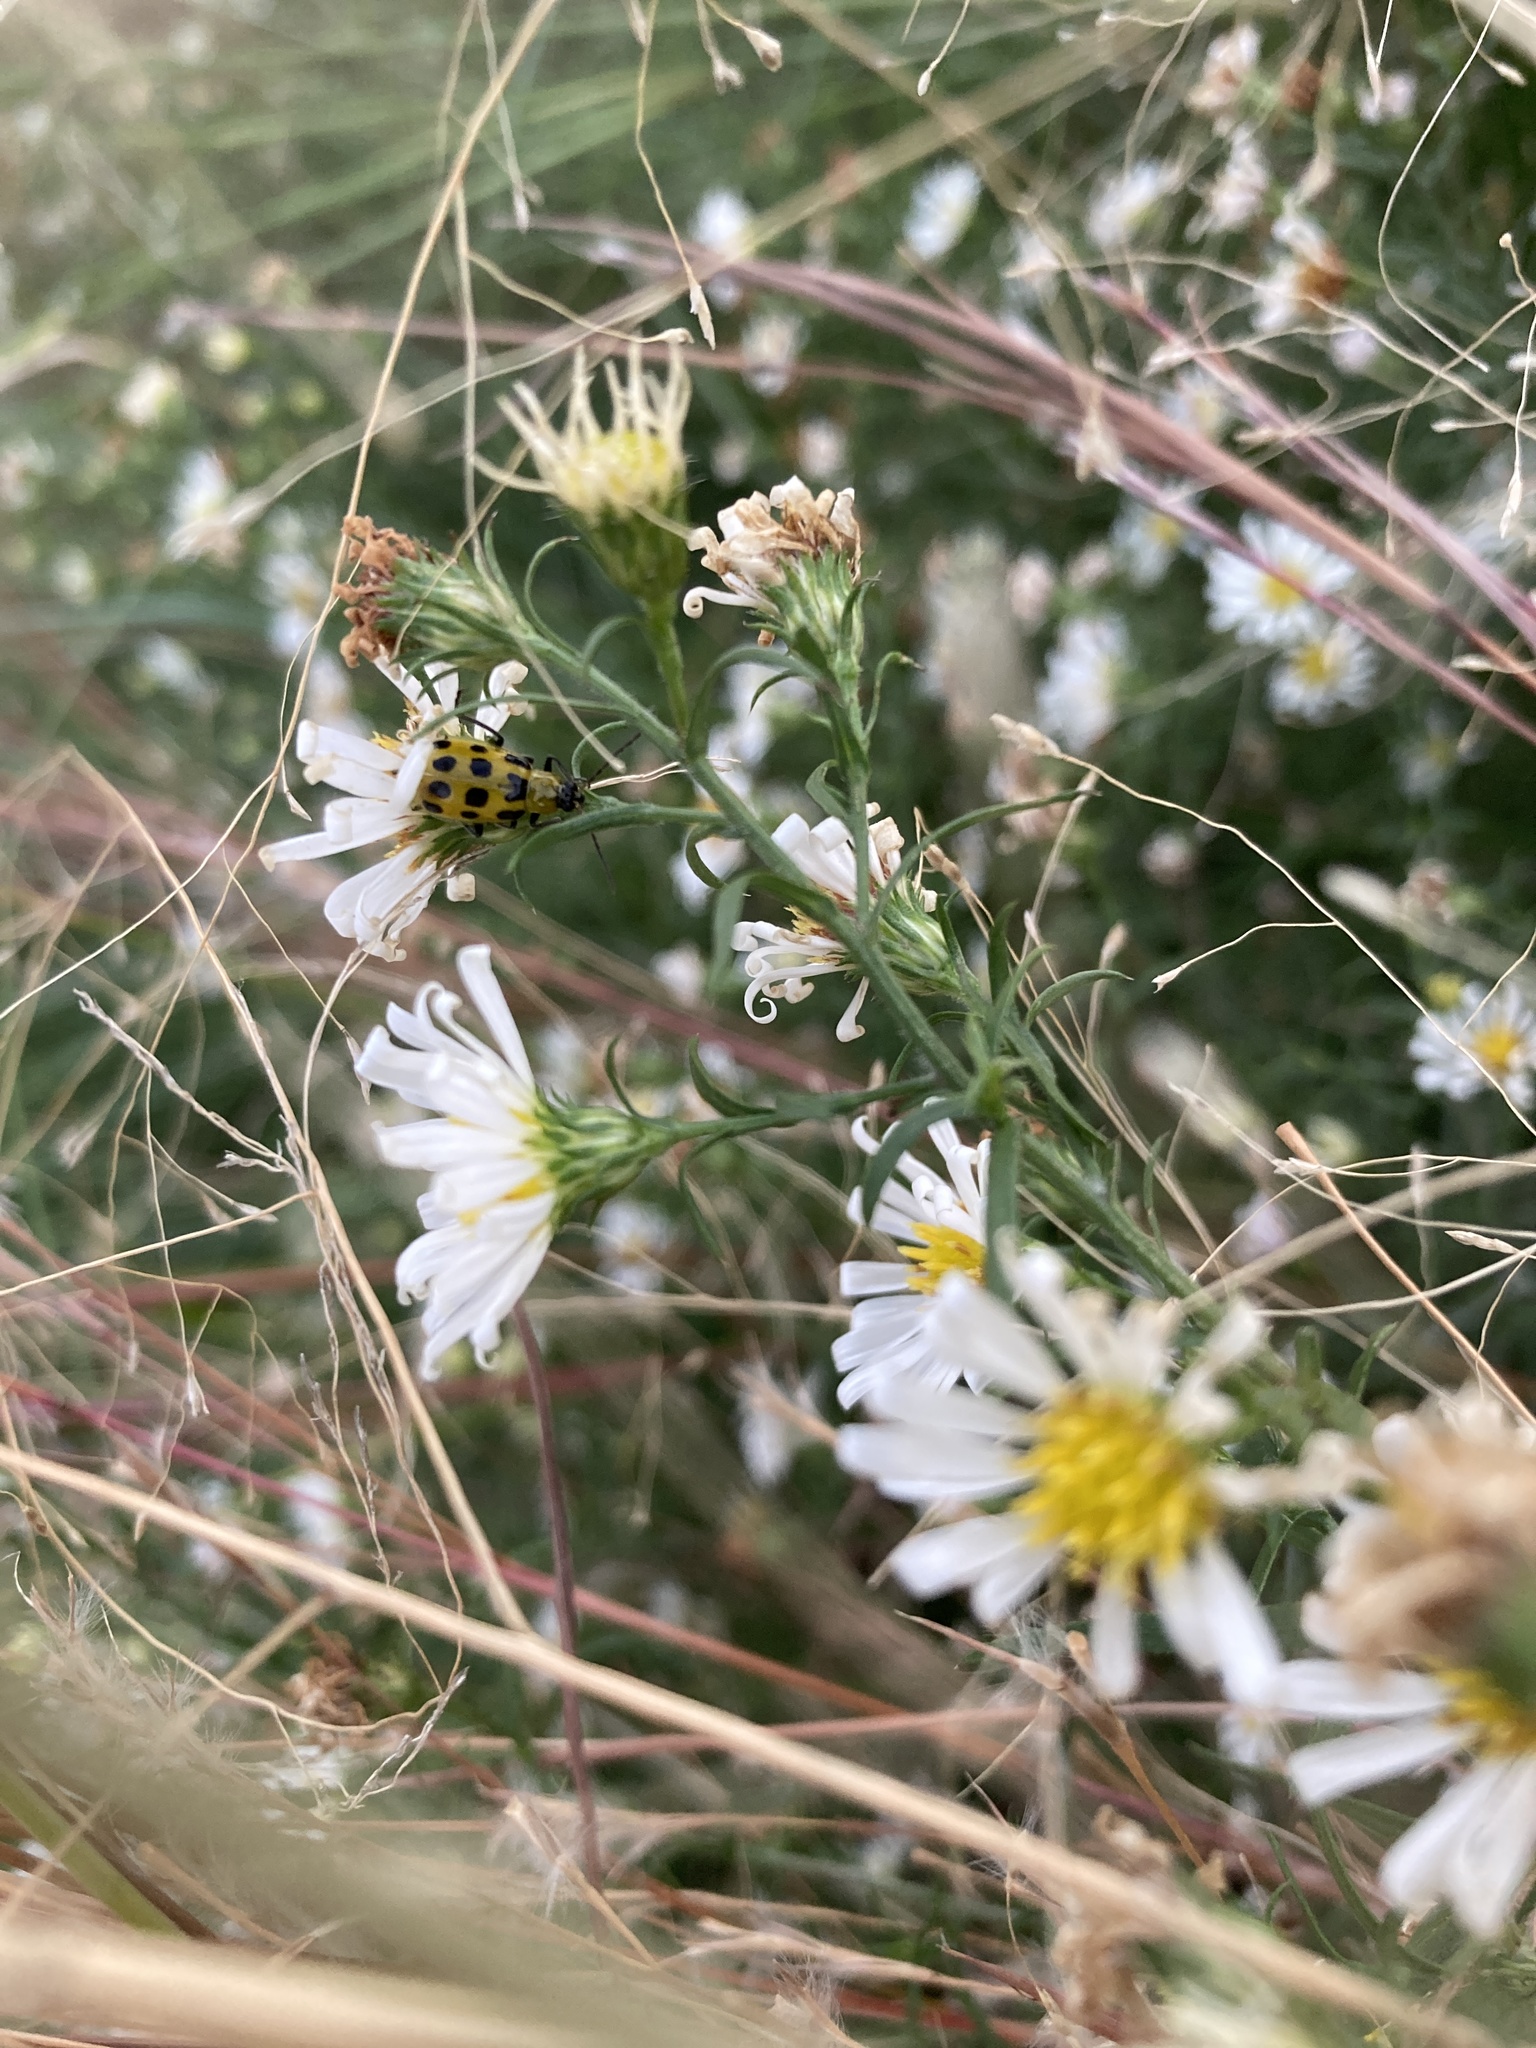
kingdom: Animalia
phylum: Arthropoda
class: Insecta
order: Coleoptera
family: Chrysomelidae
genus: Diabrotica
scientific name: Diabrotica undecimpunctata
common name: Spotted cucumber beetle
